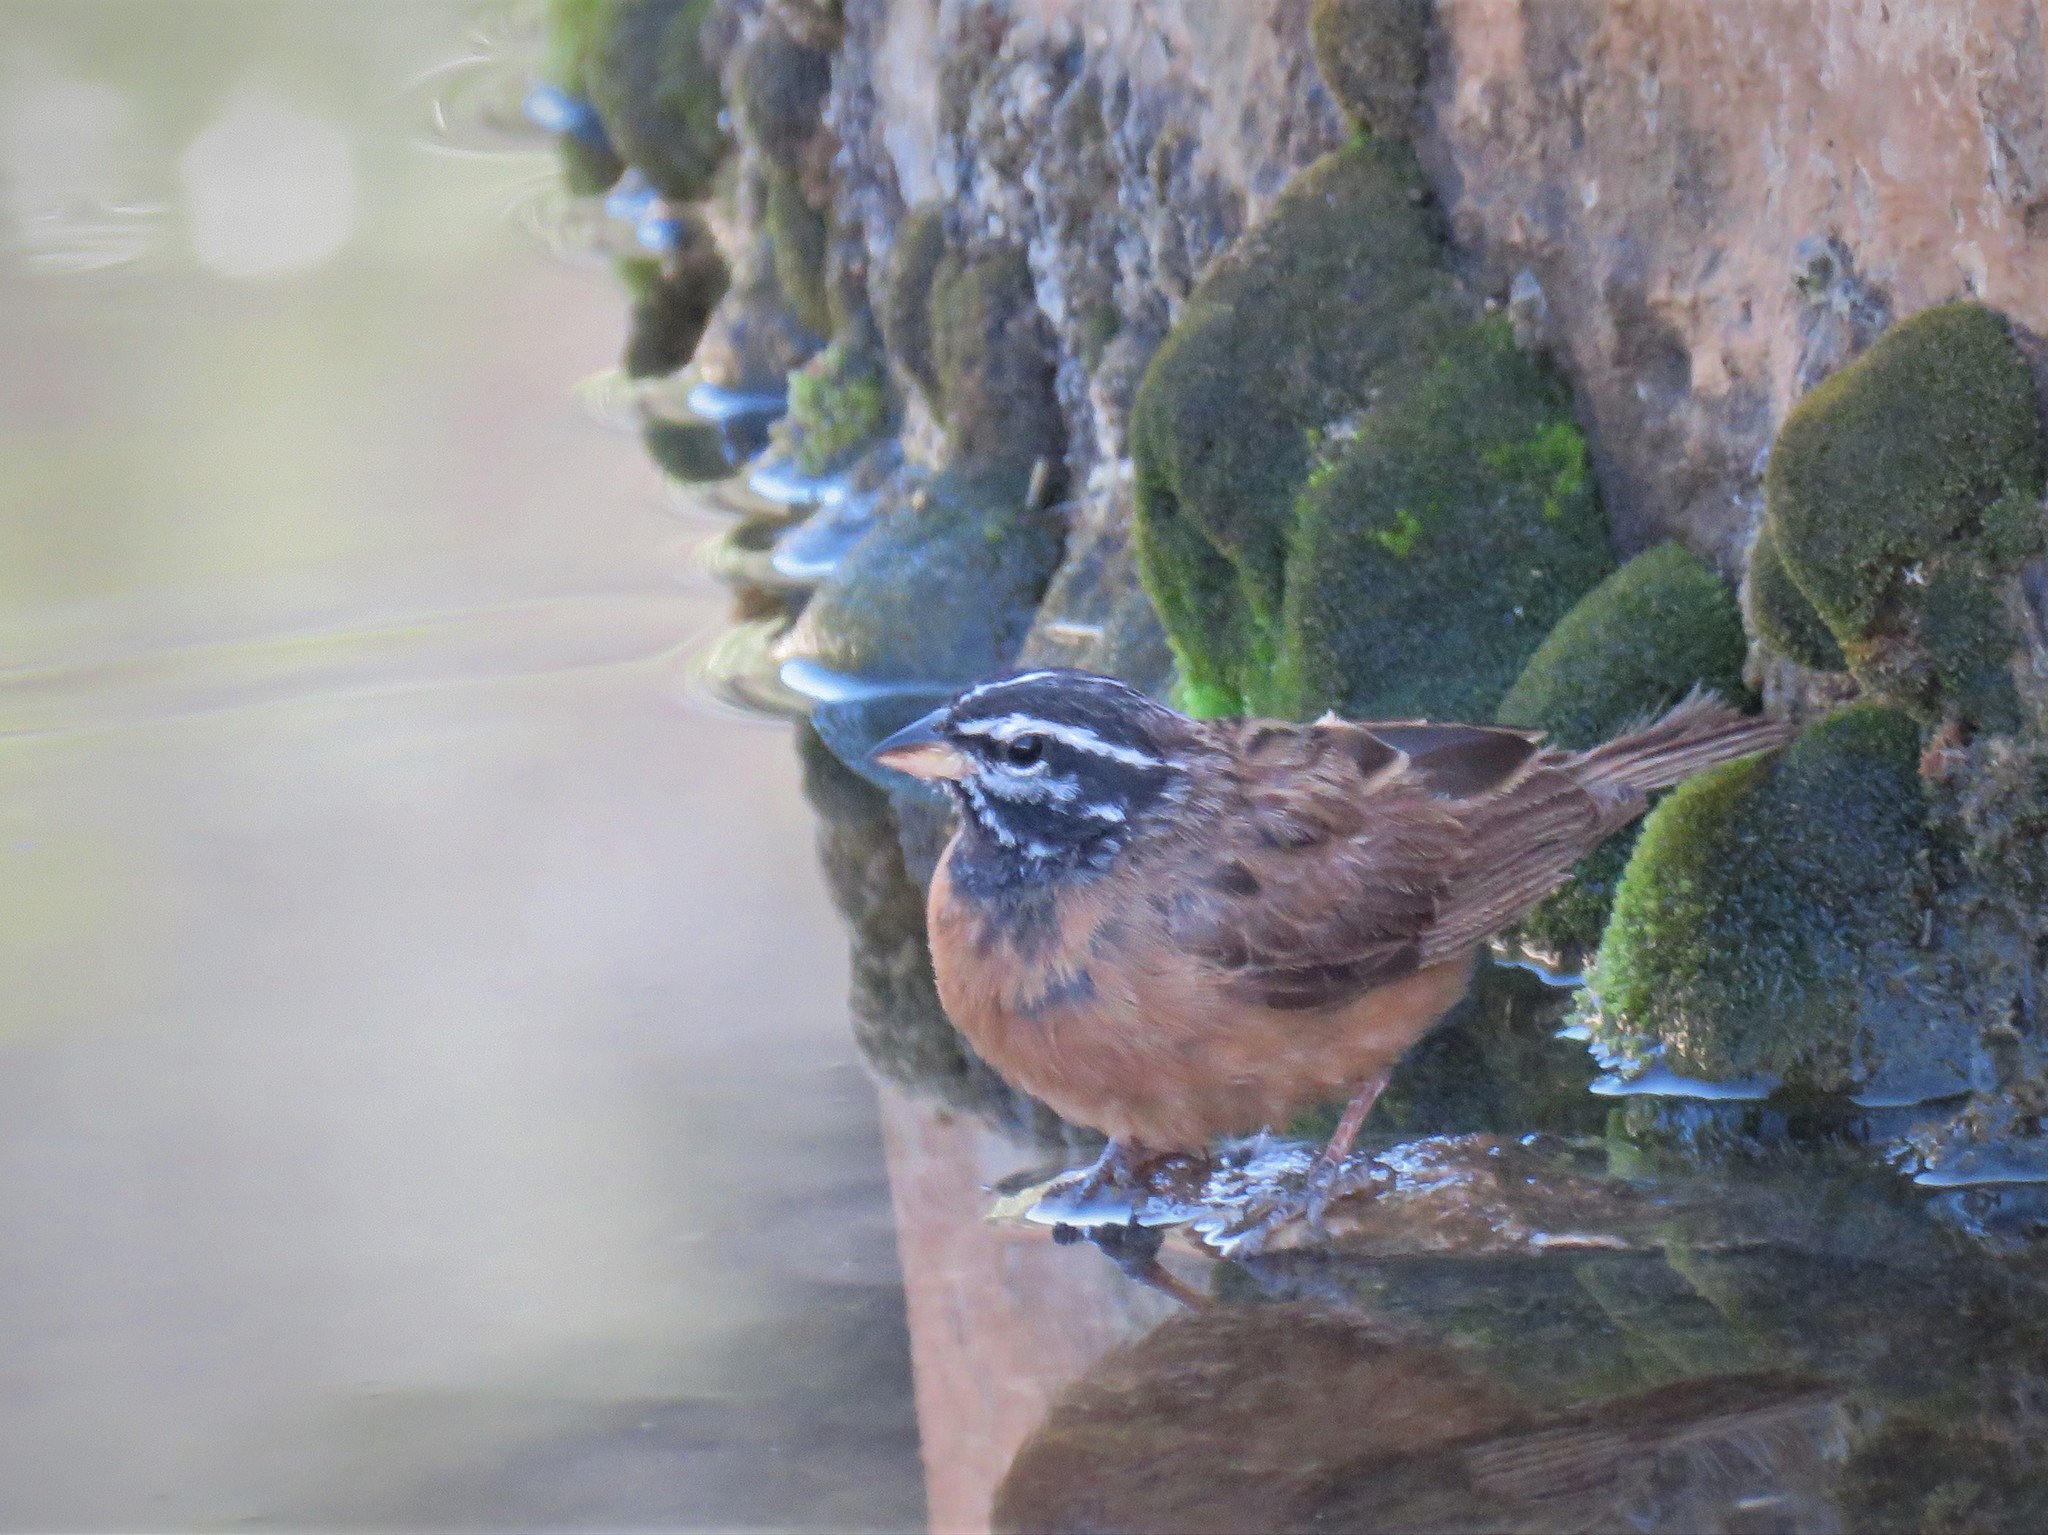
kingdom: Animalia
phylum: Chordata
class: Aves
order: Passeriformes
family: Emberizidae
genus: Emberiza
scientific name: Emberiza tahapisi
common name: Cinnamon-breasted bunting
